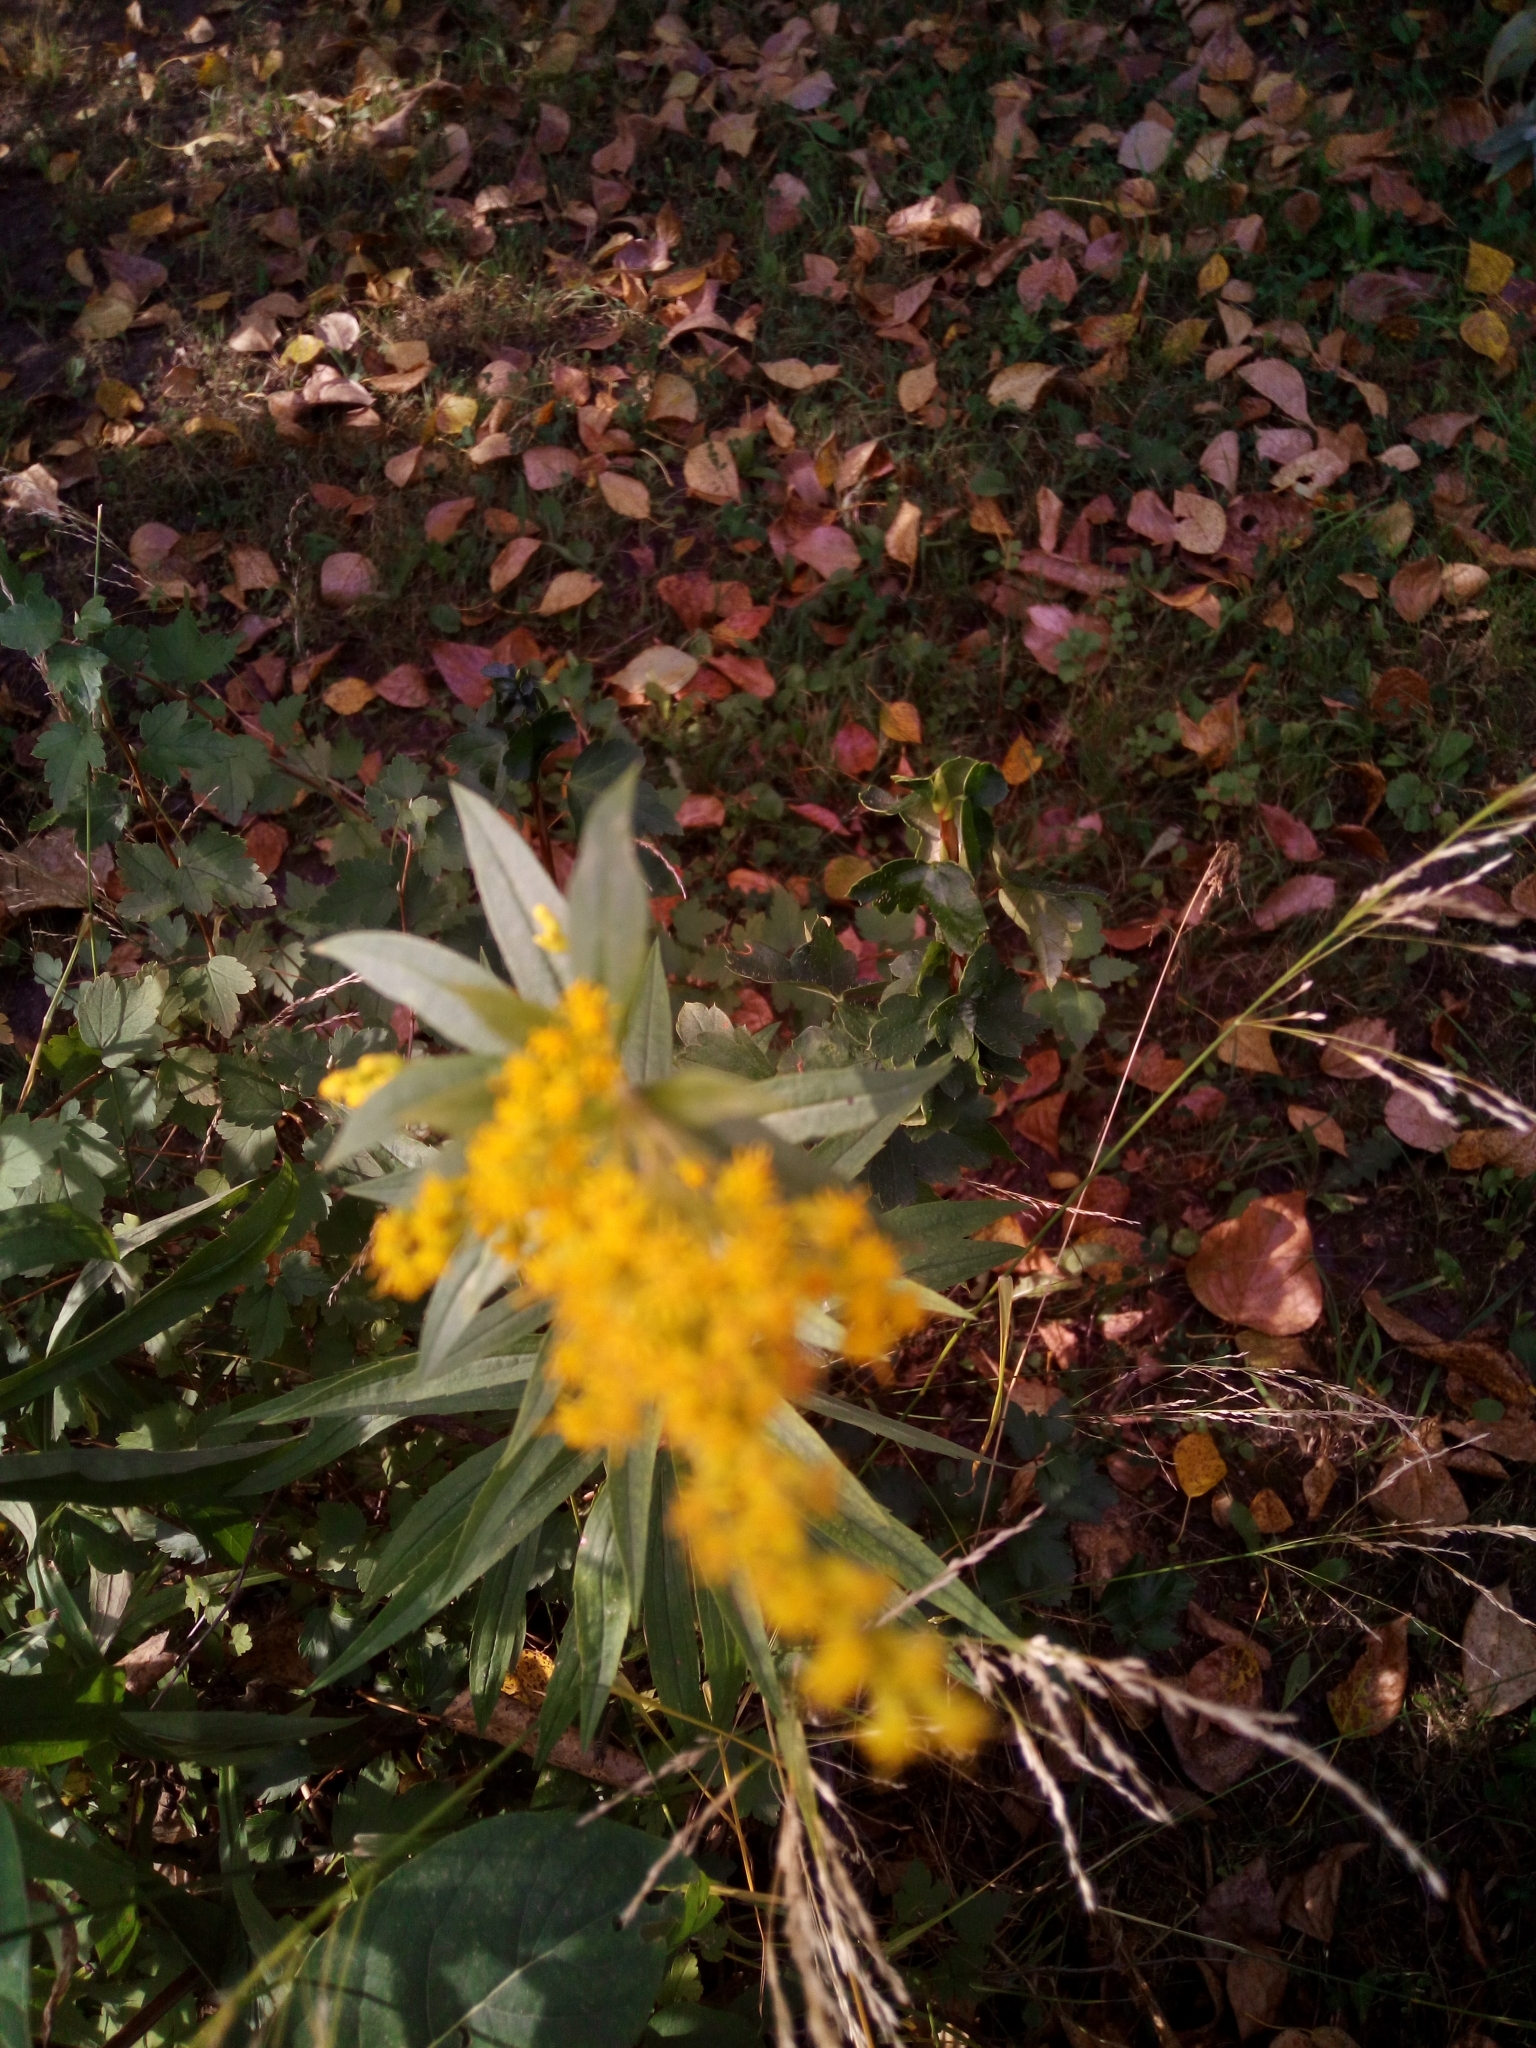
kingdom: Plantae
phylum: Tracheophyta
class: Magnoliopsida
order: Asterales
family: Asteraceae
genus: Solidago
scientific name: Solidago canadensis
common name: Canada goldenrod
